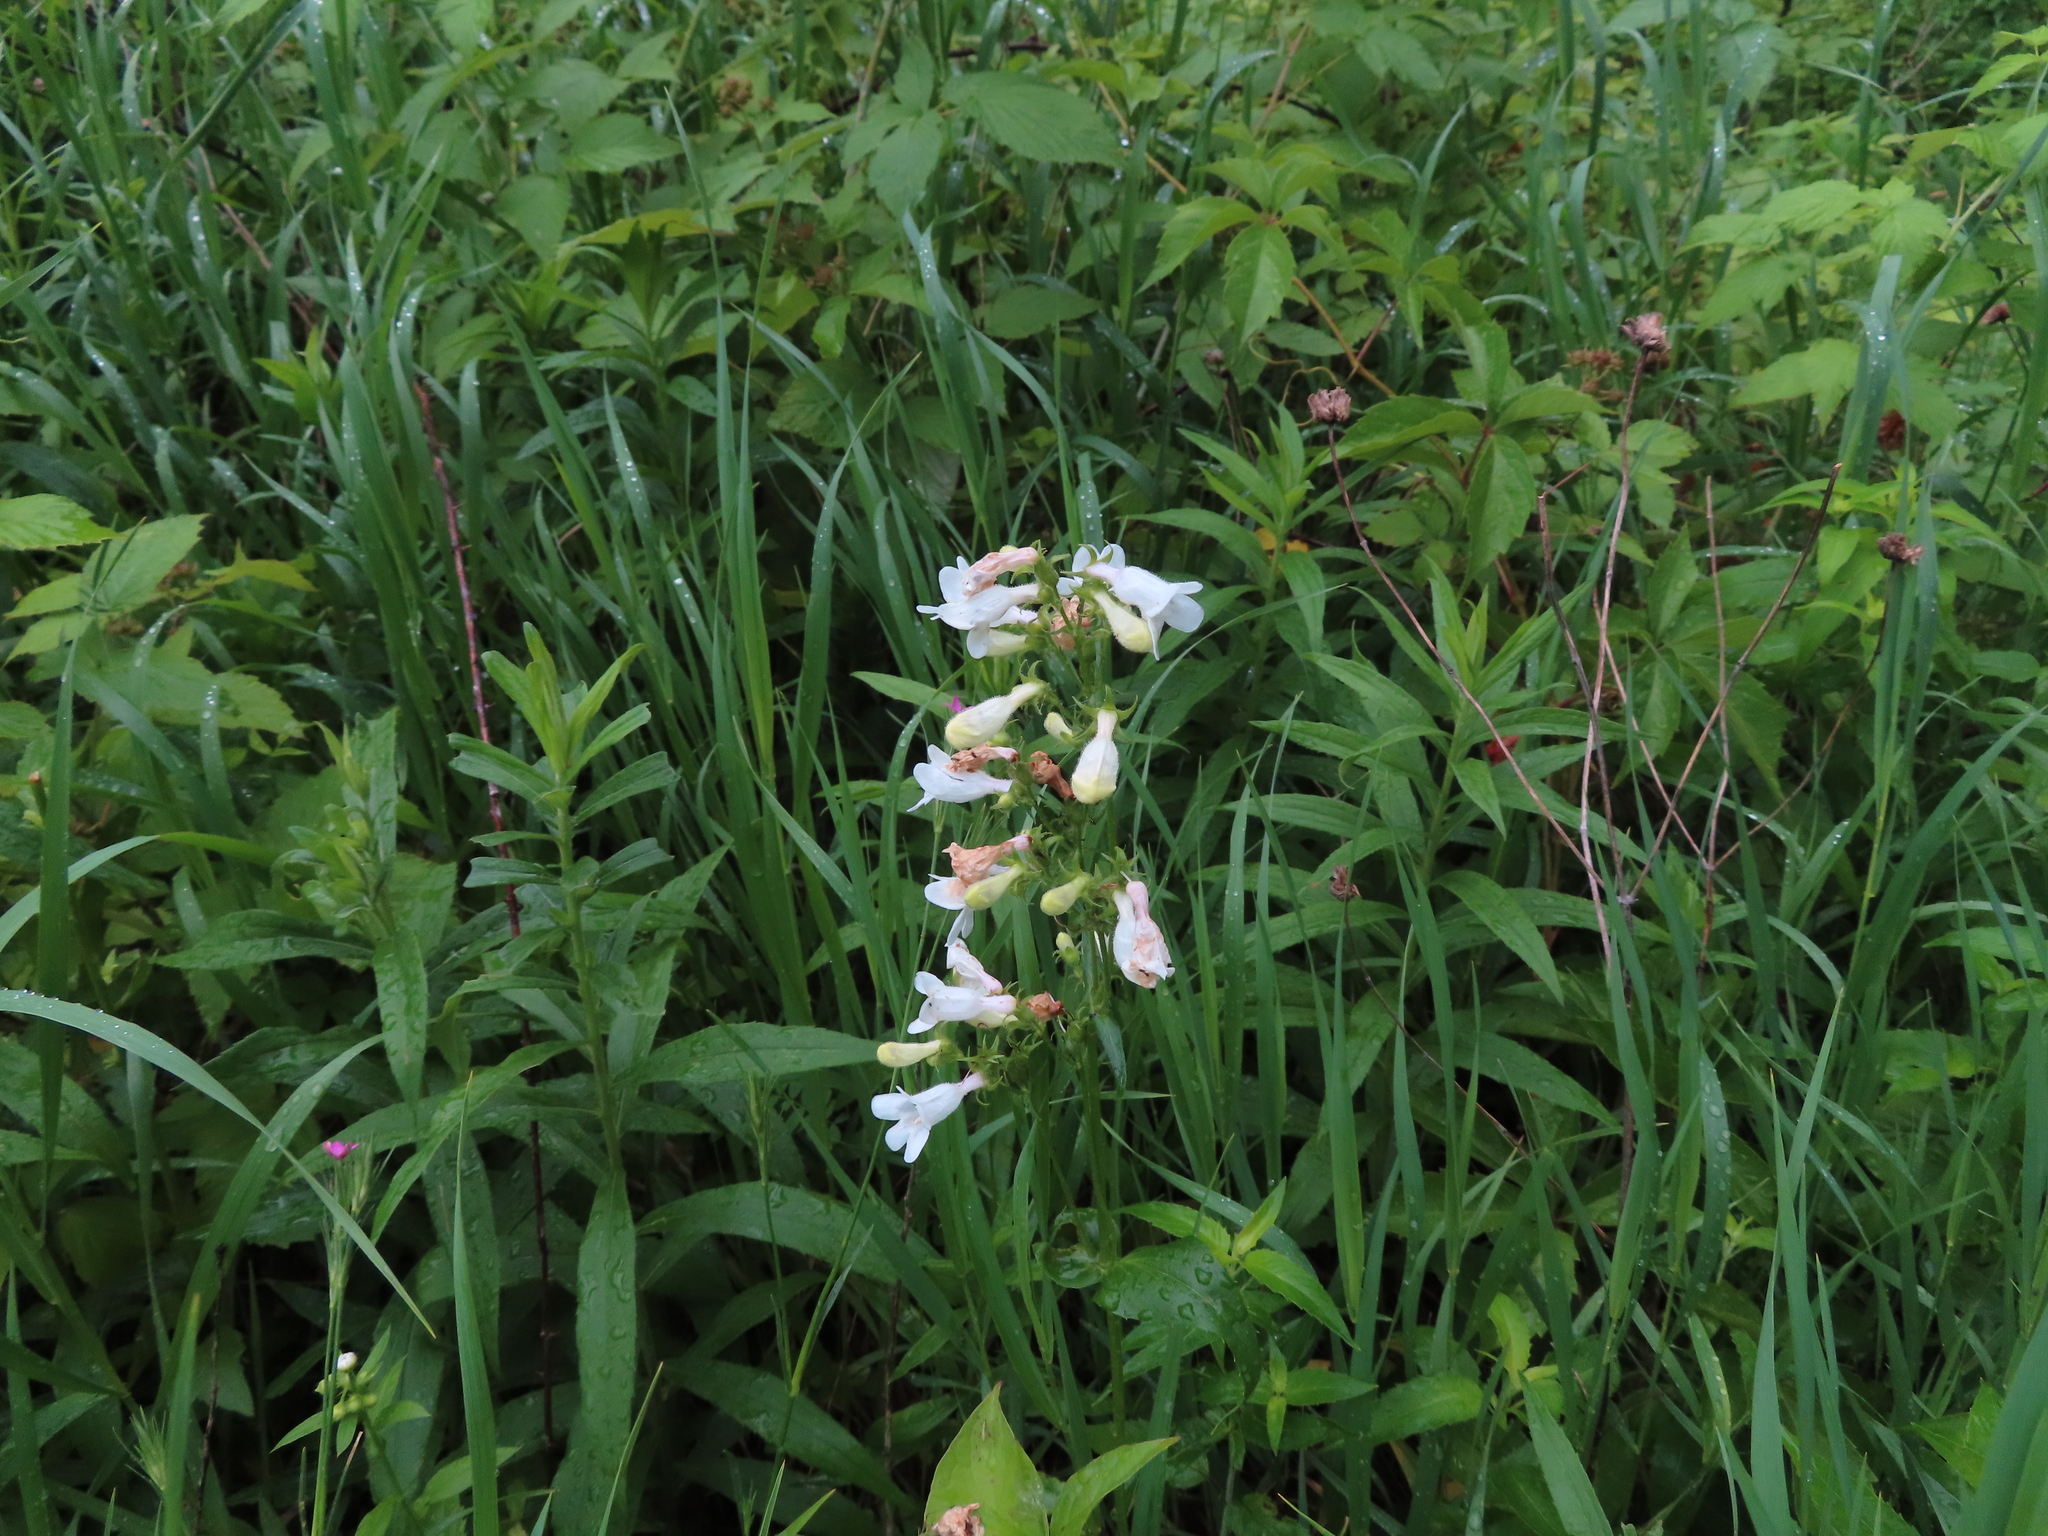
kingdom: Plantae
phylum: Tracheophyta
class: Magnoliopsida
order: Lamiales
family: Plantaginaceae
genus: Penstemon
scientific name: Penstemon digitalis
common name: Foxglove beardtongue
